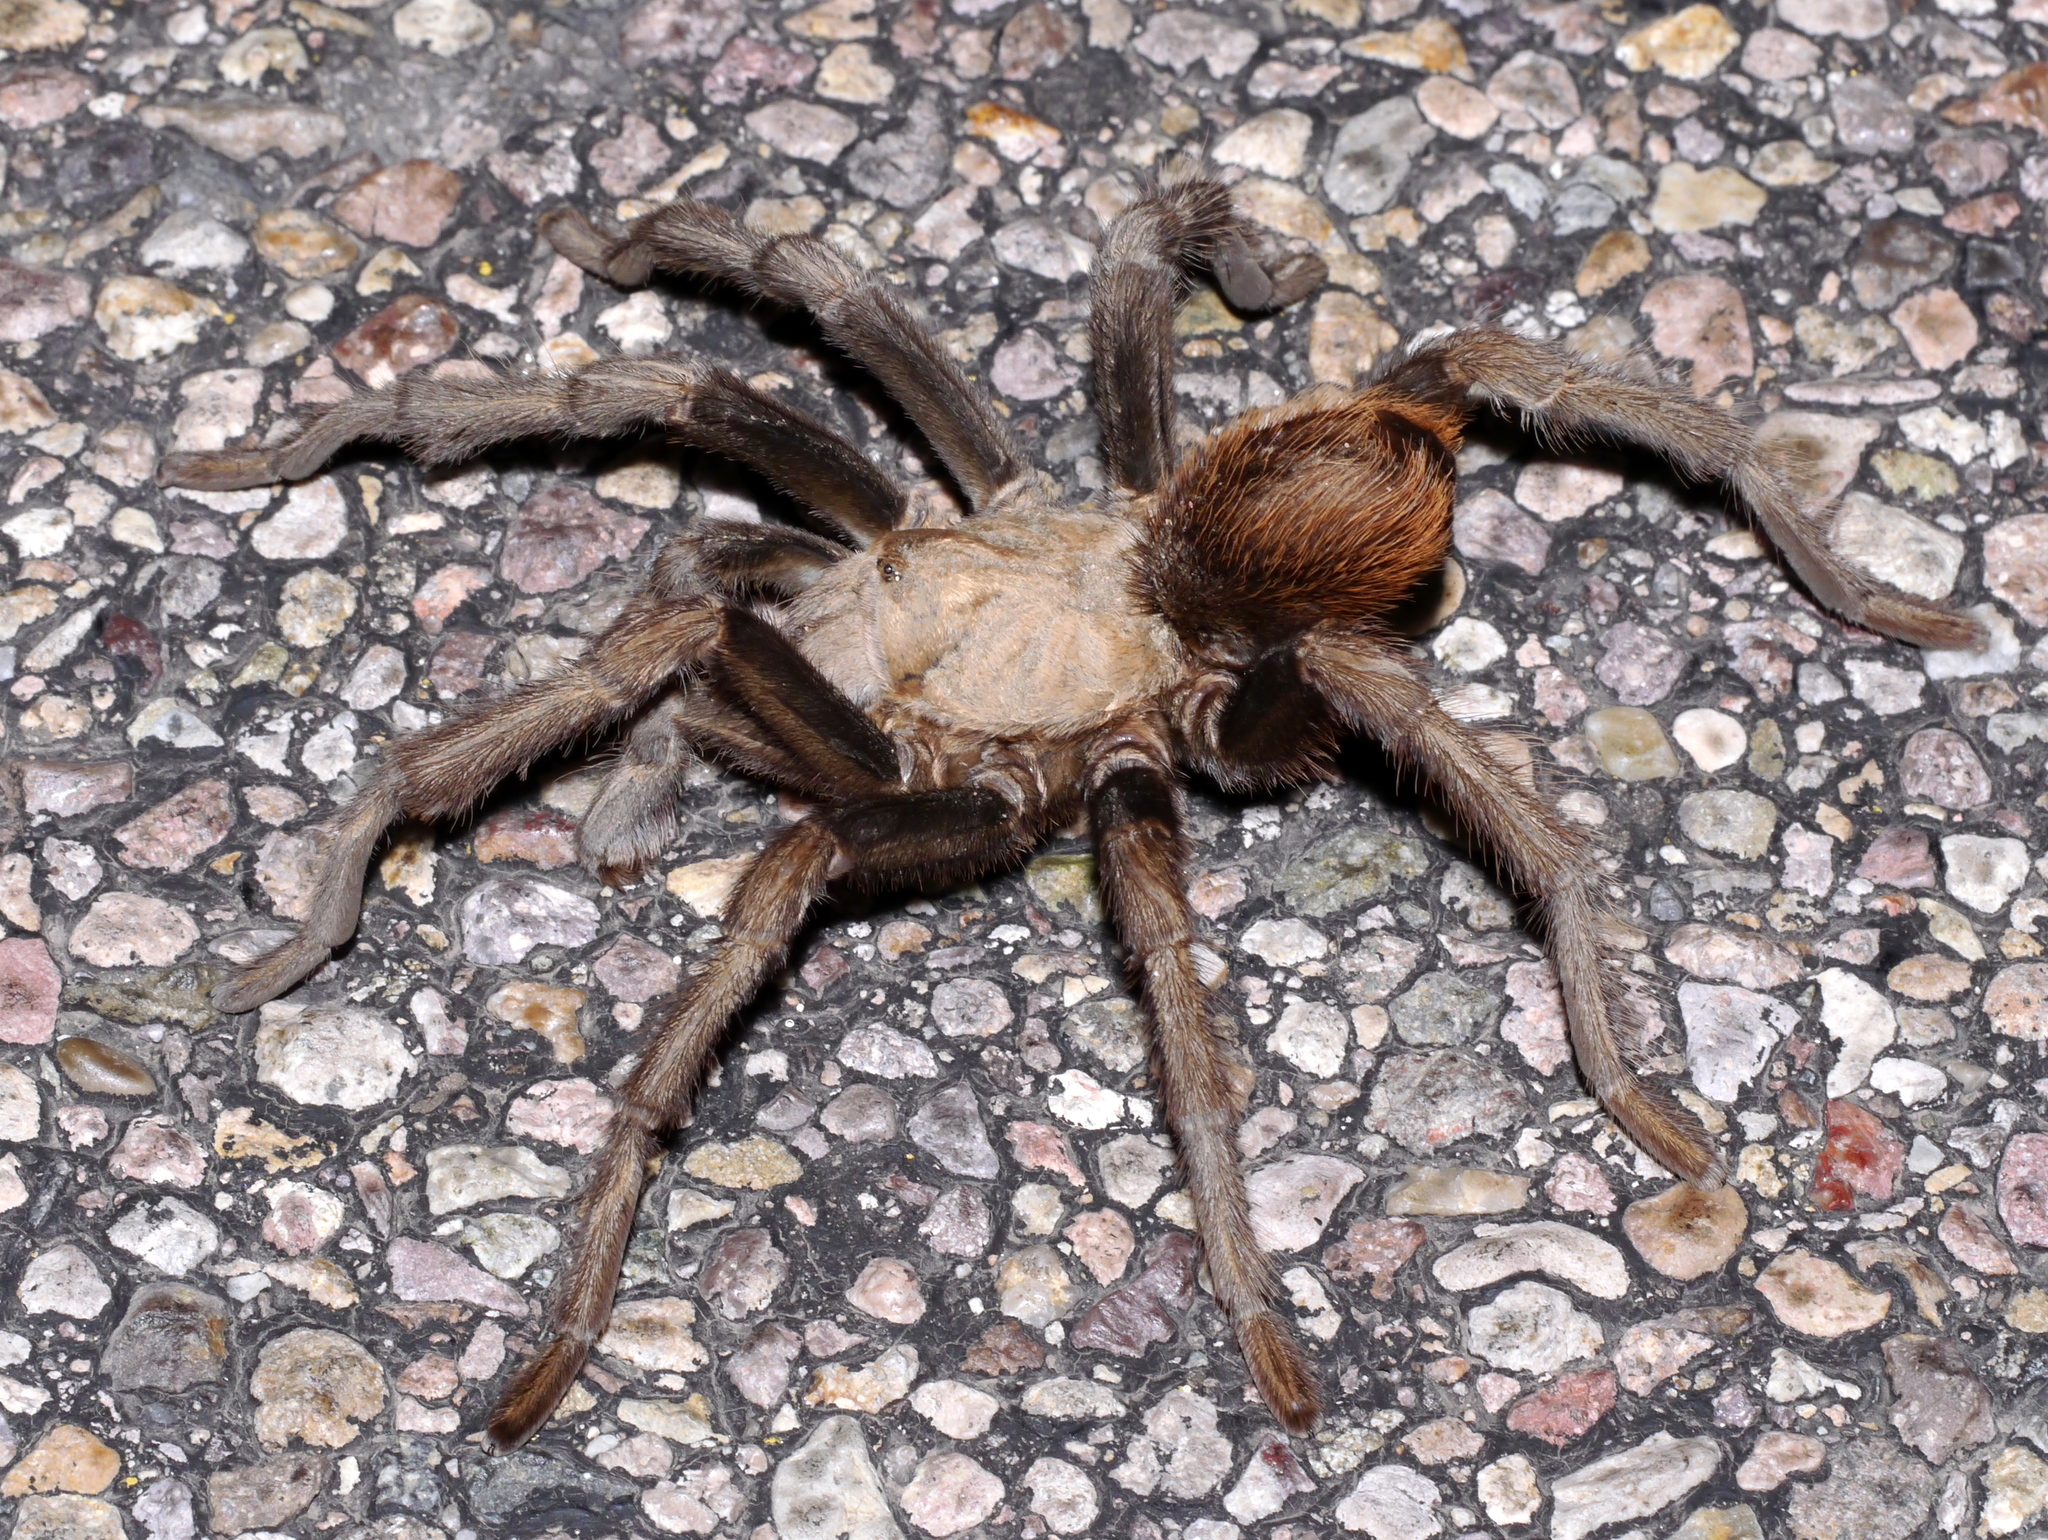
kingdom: Animalia
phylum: Arthropoda
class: Arachnida
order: Araneae
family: Theraphosidae
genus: Aphonopelma
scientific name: Aphonopelma chalcodes
